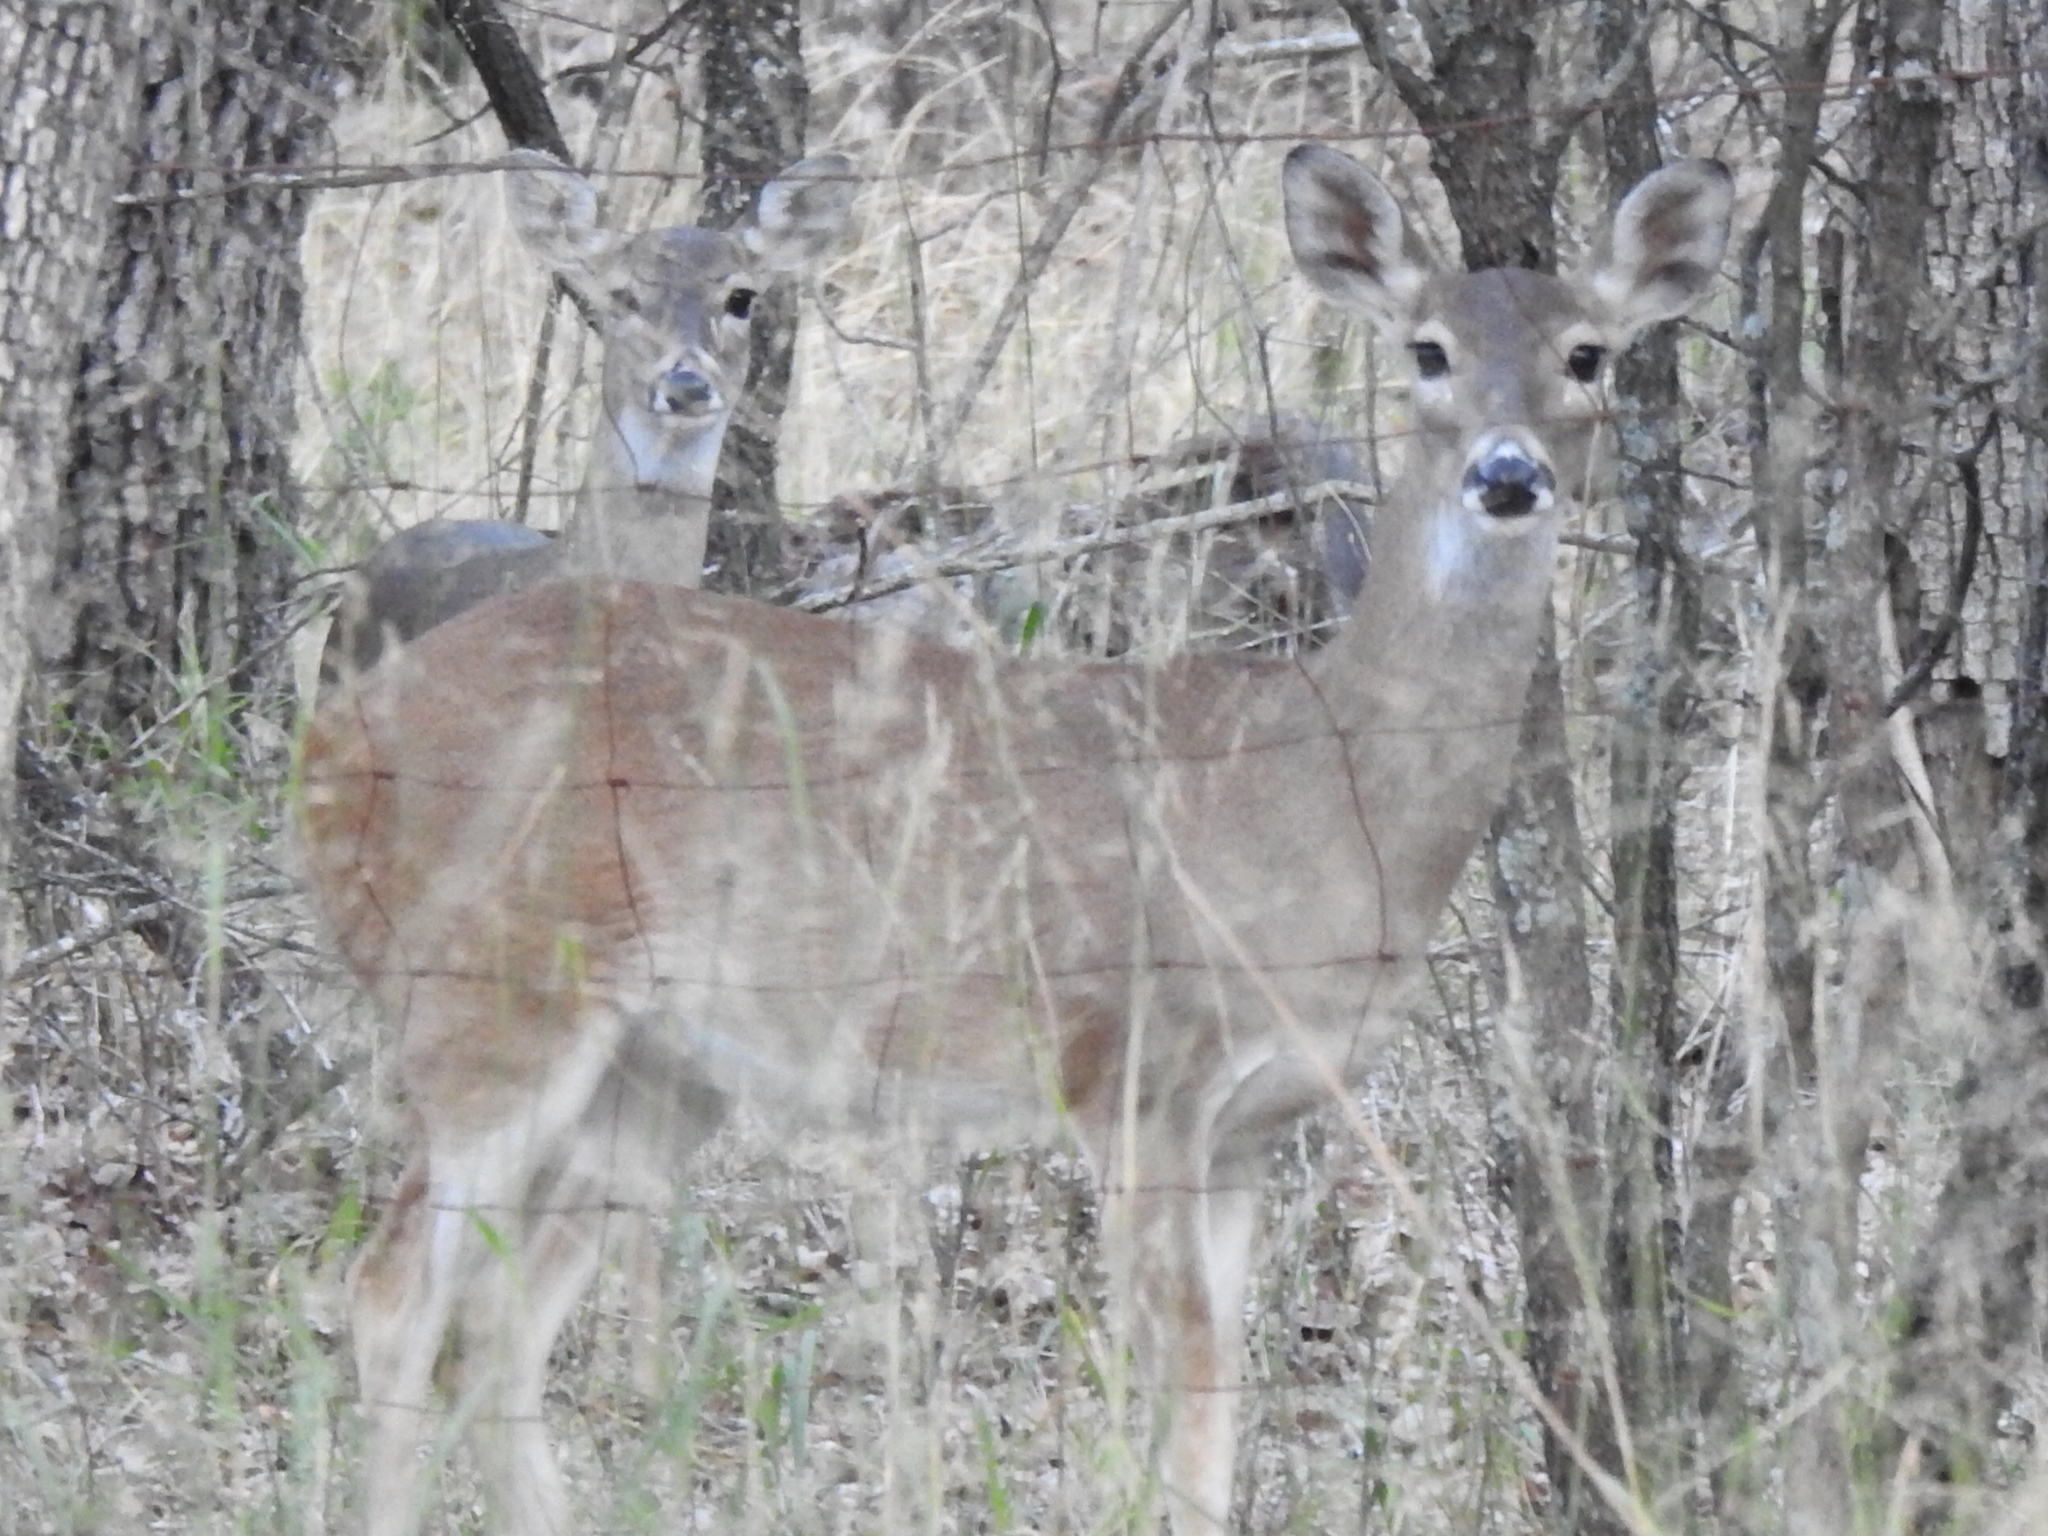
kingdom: Animalia
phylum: Chordata
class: Mammalia
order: Artiodactyla
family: Cervidae
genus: Odocoileus
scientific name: Odocoileus virginianus
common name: White-tailed deer
